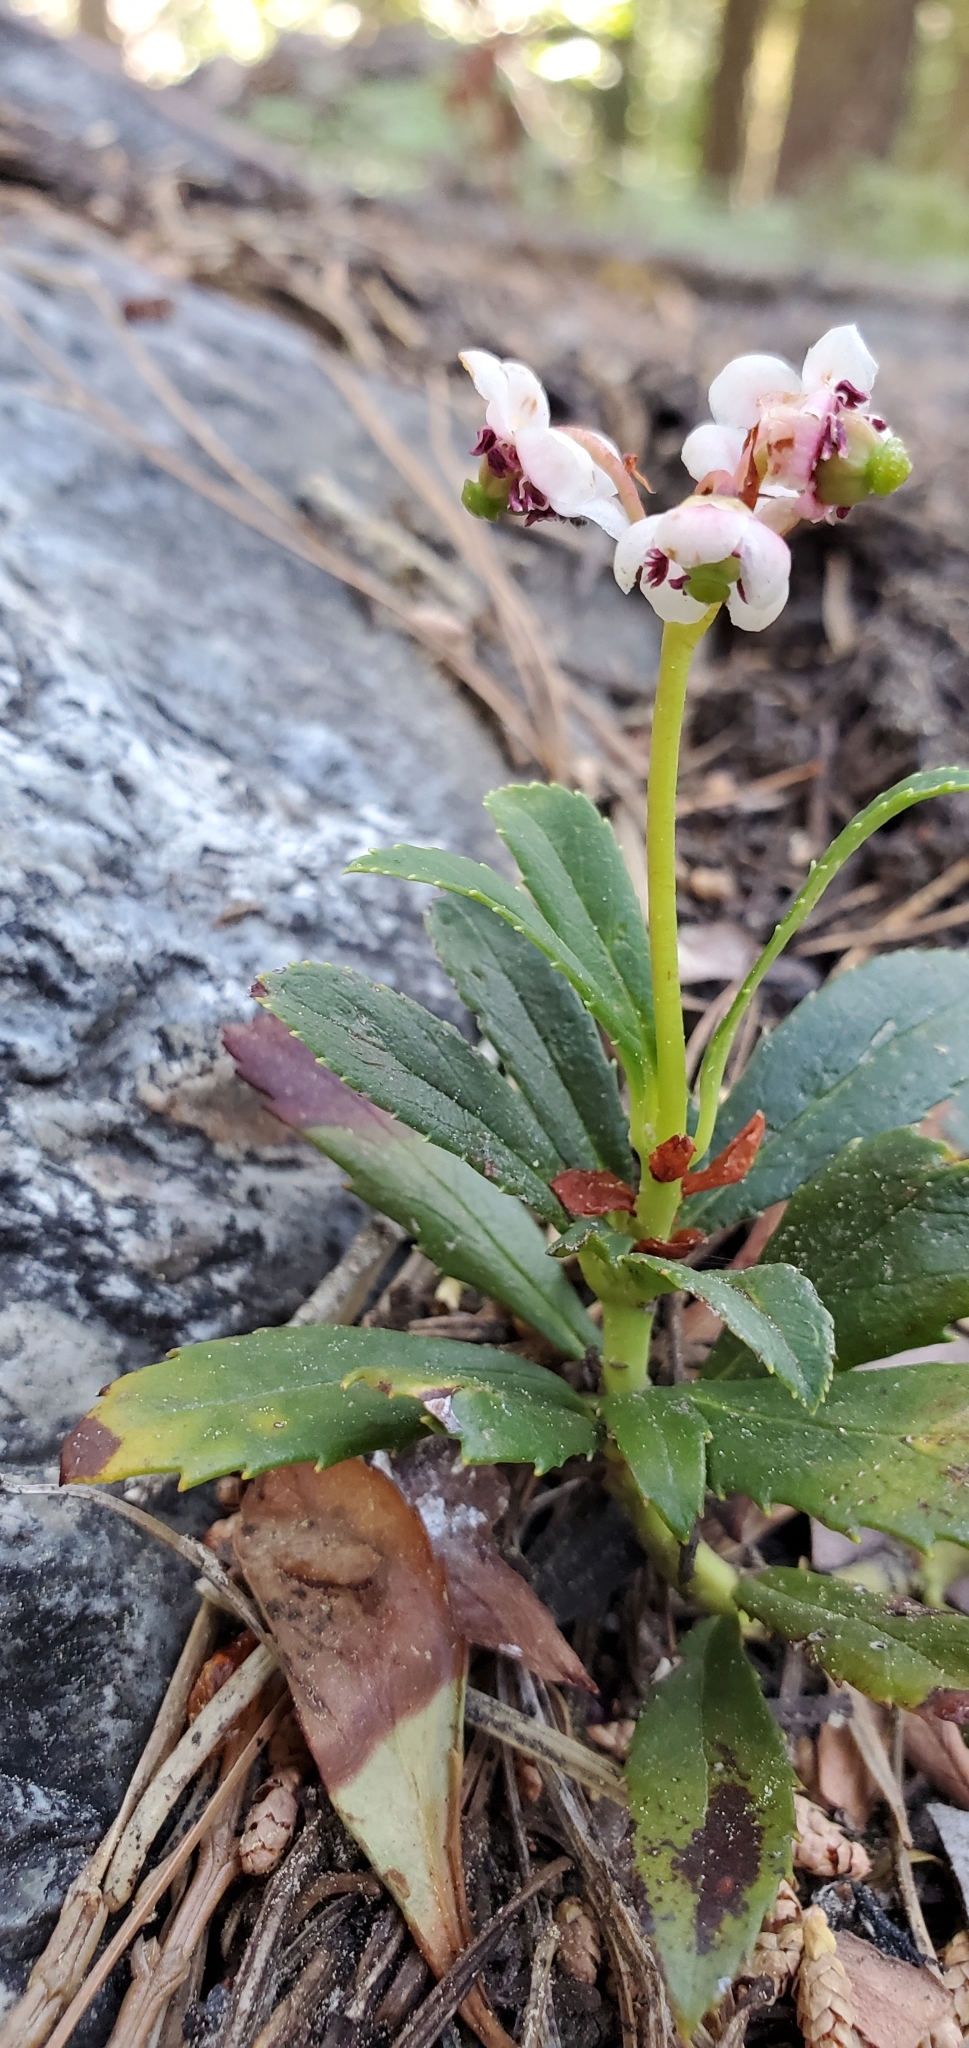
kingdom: Plantae
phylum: Tracheophyta
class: Magnoliopsida
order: Ericales
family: Ericaceae
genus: Chimaphila
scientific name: Chimaphila umbellata
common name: Pipsissewa
